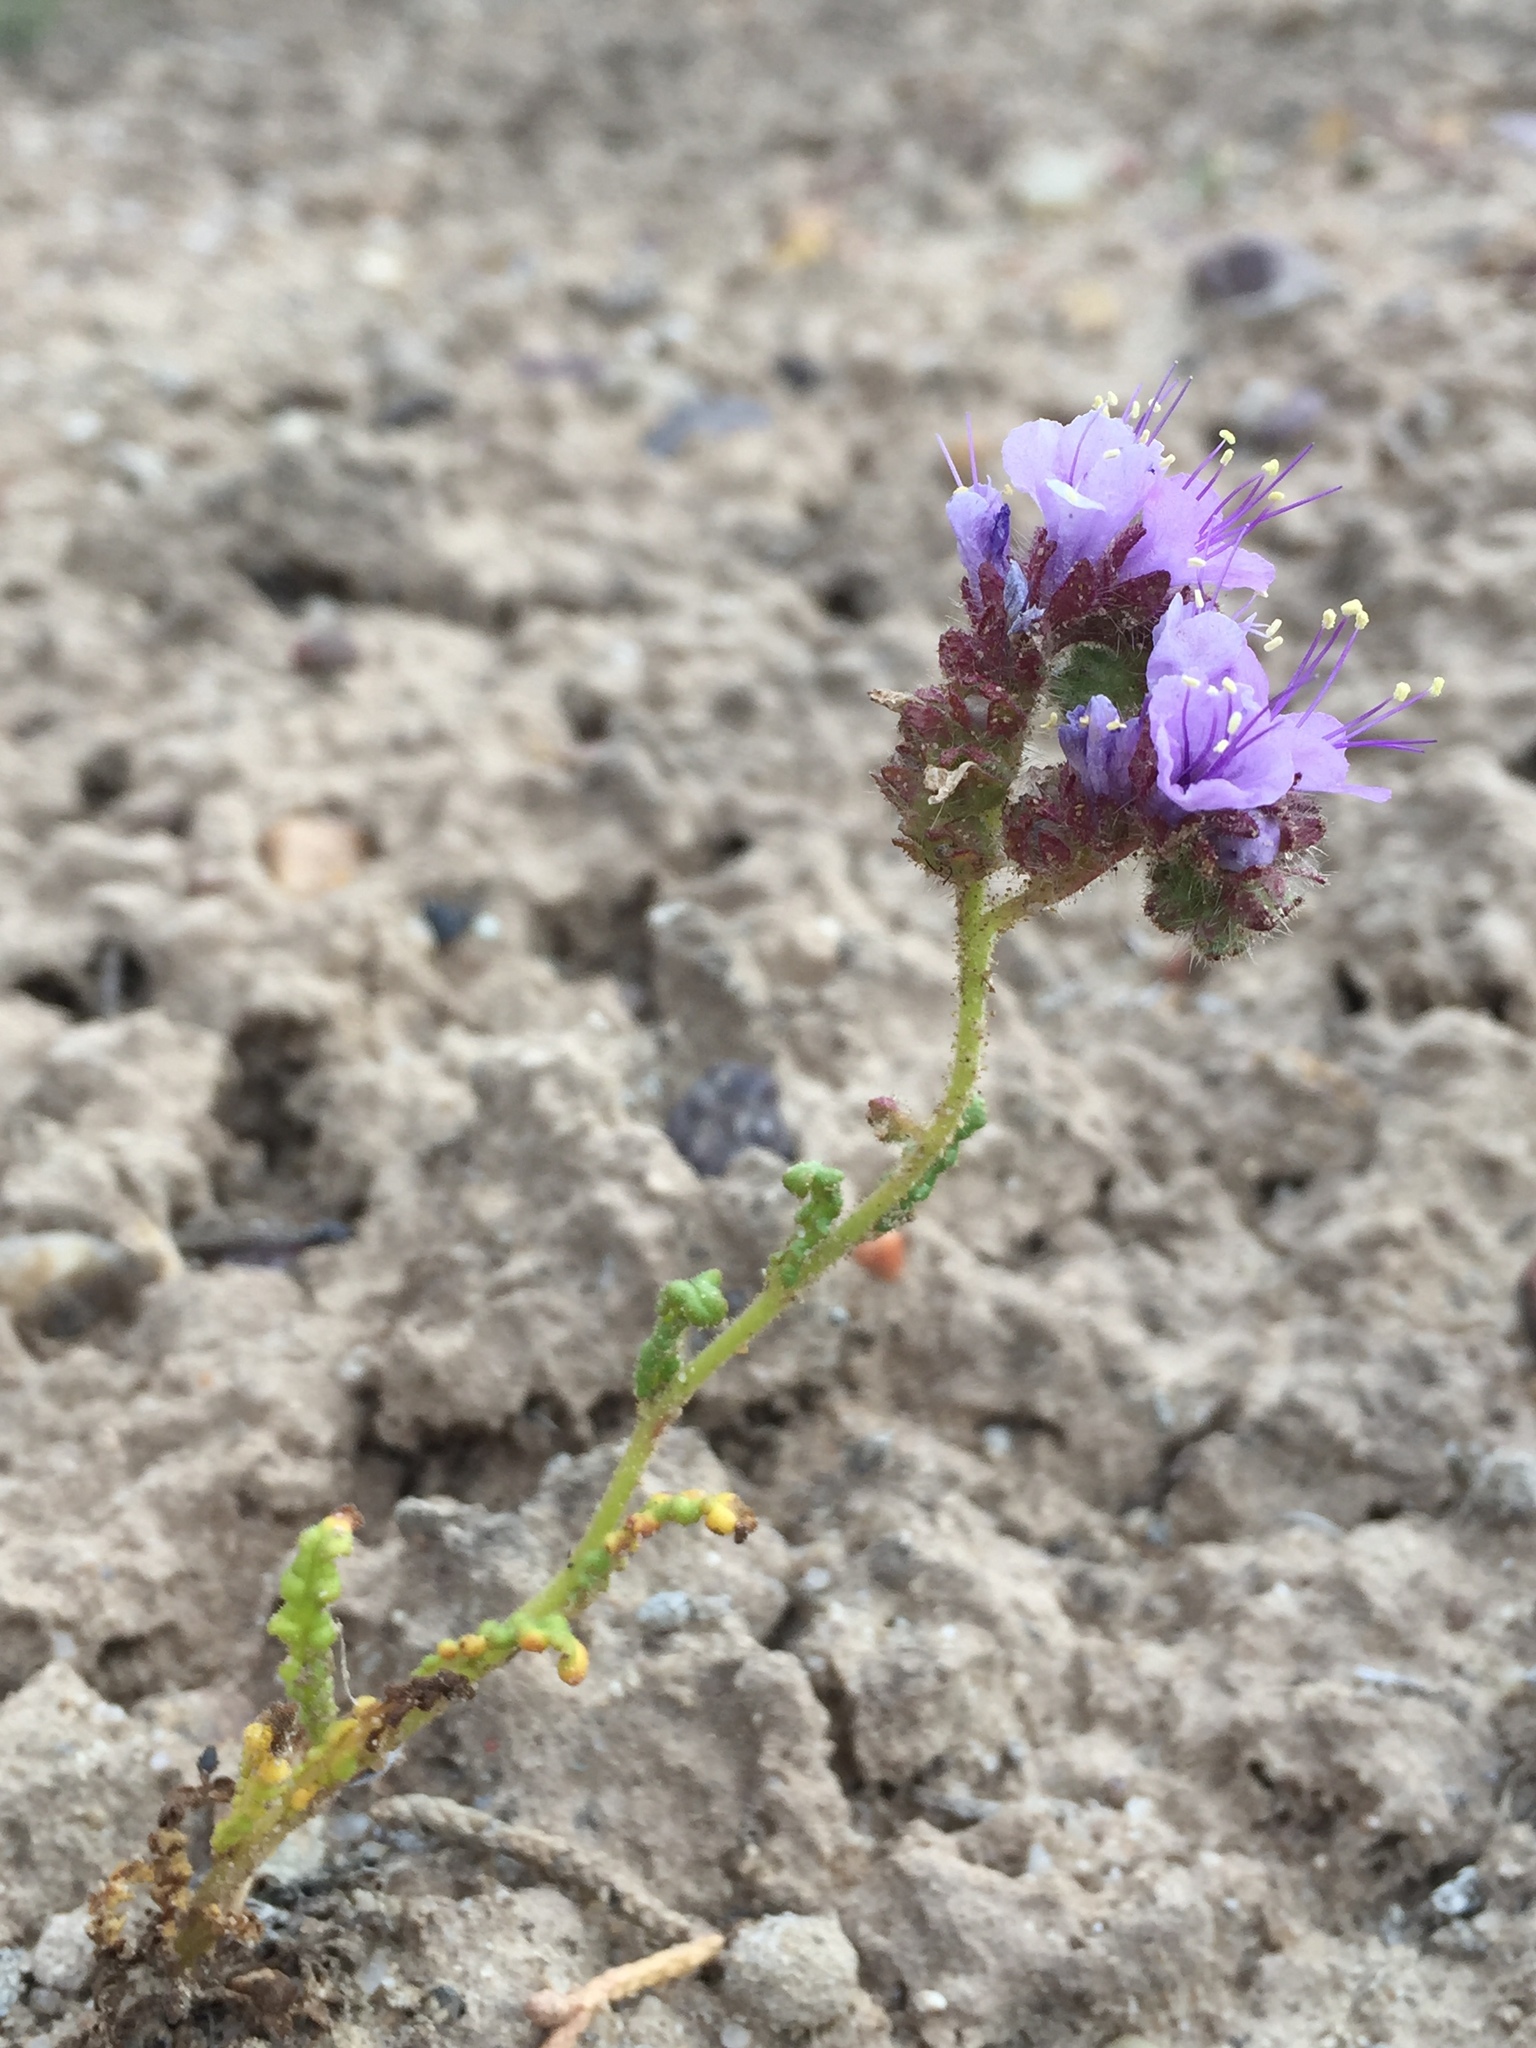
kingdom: Plantae
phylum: Tracheophyta
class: Magnoliopsida
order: Boraginales
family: Hydrophyllaceae
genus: Phacelia
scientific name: Phacelia crenulata
